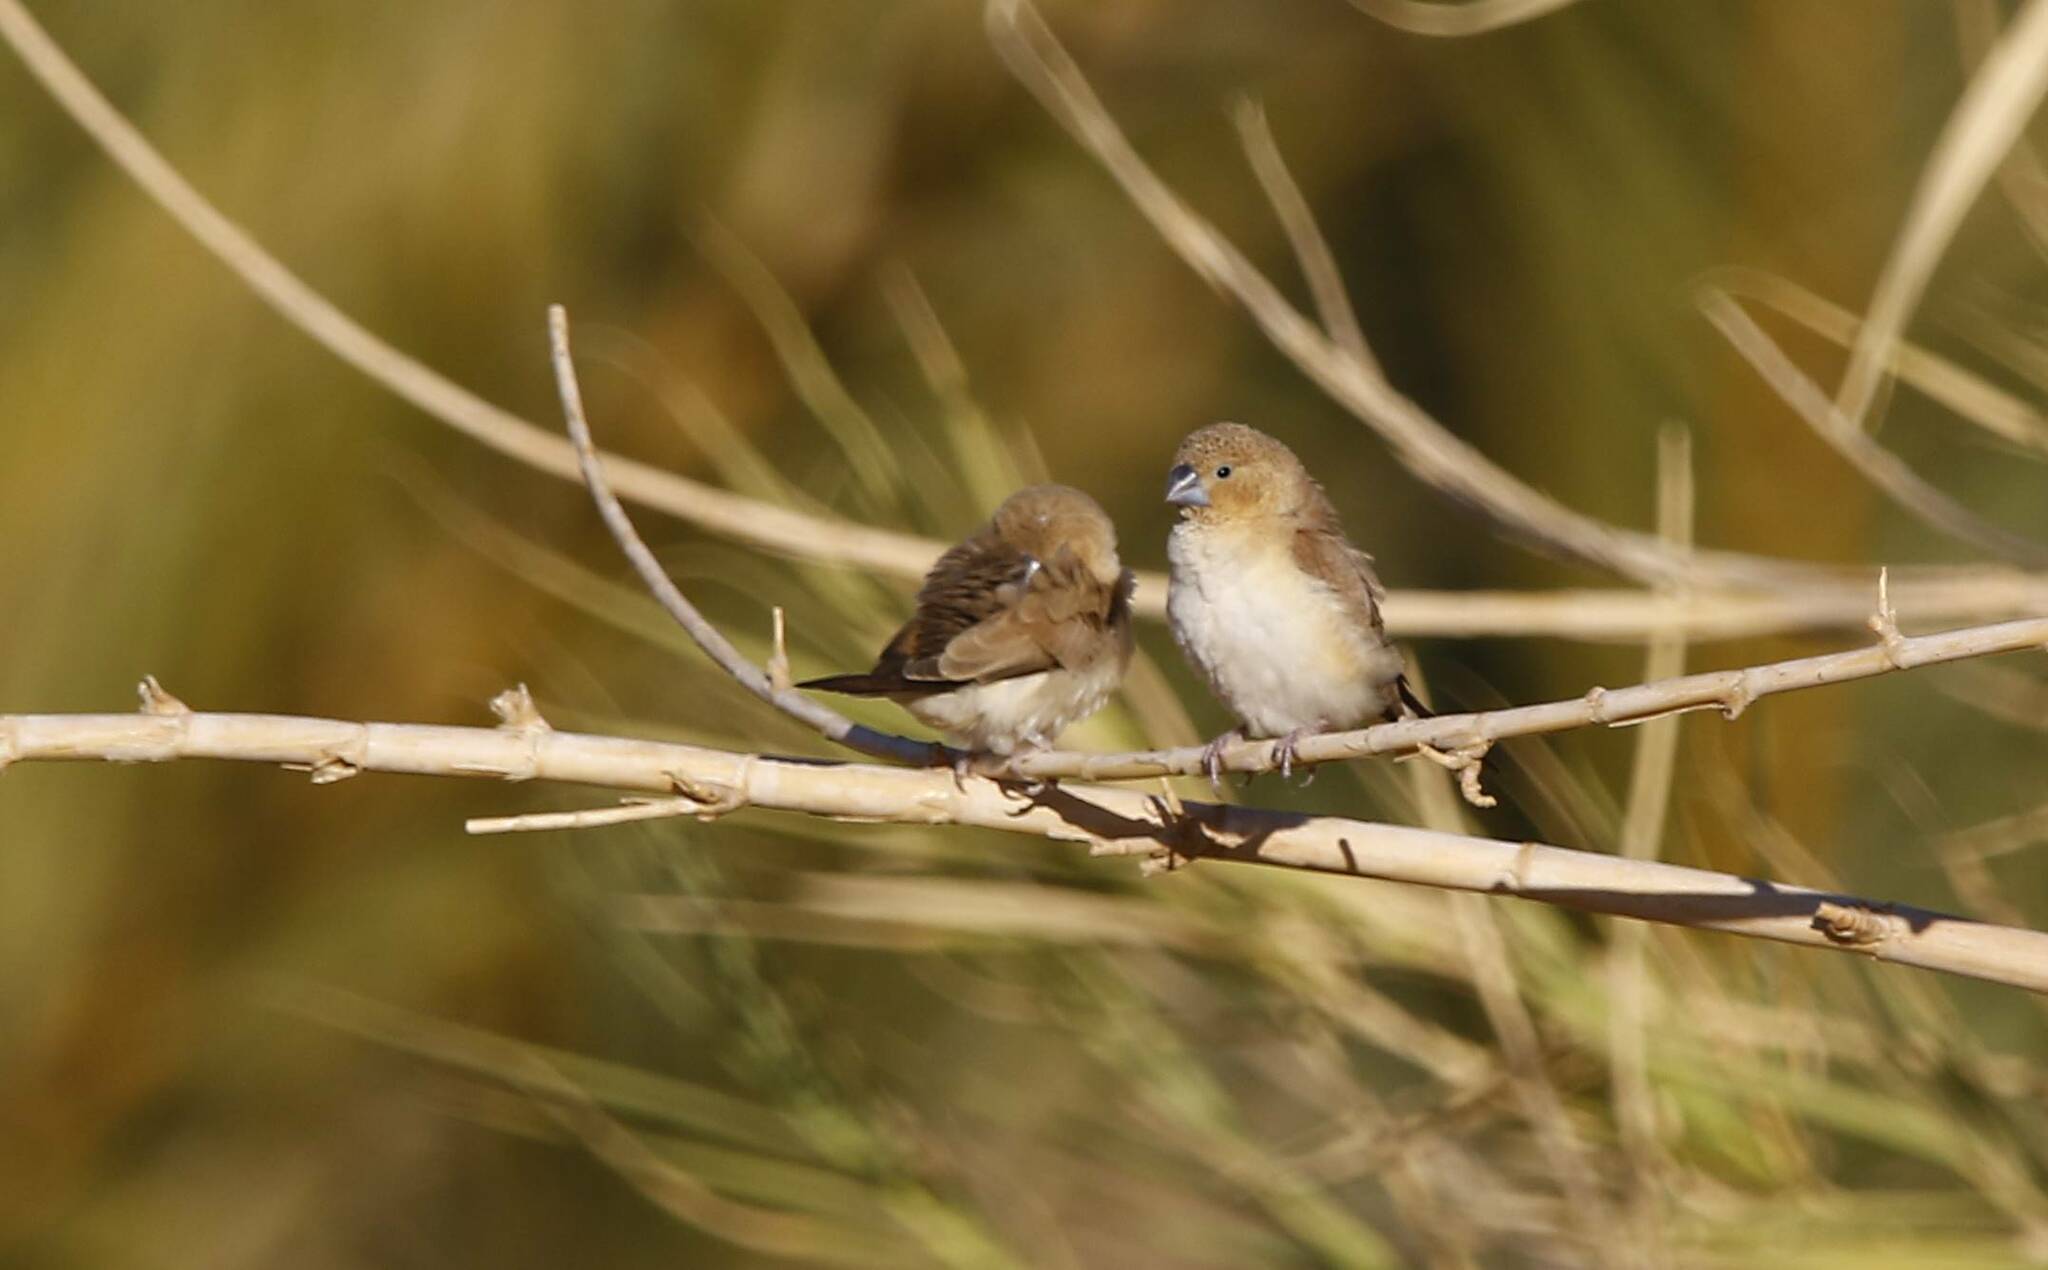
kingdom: Animalia
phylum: Chordata
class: Aves
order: Passeriformes
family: Estrildidae
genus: Euodice
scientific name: Euodice cantans
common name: African silverbill
